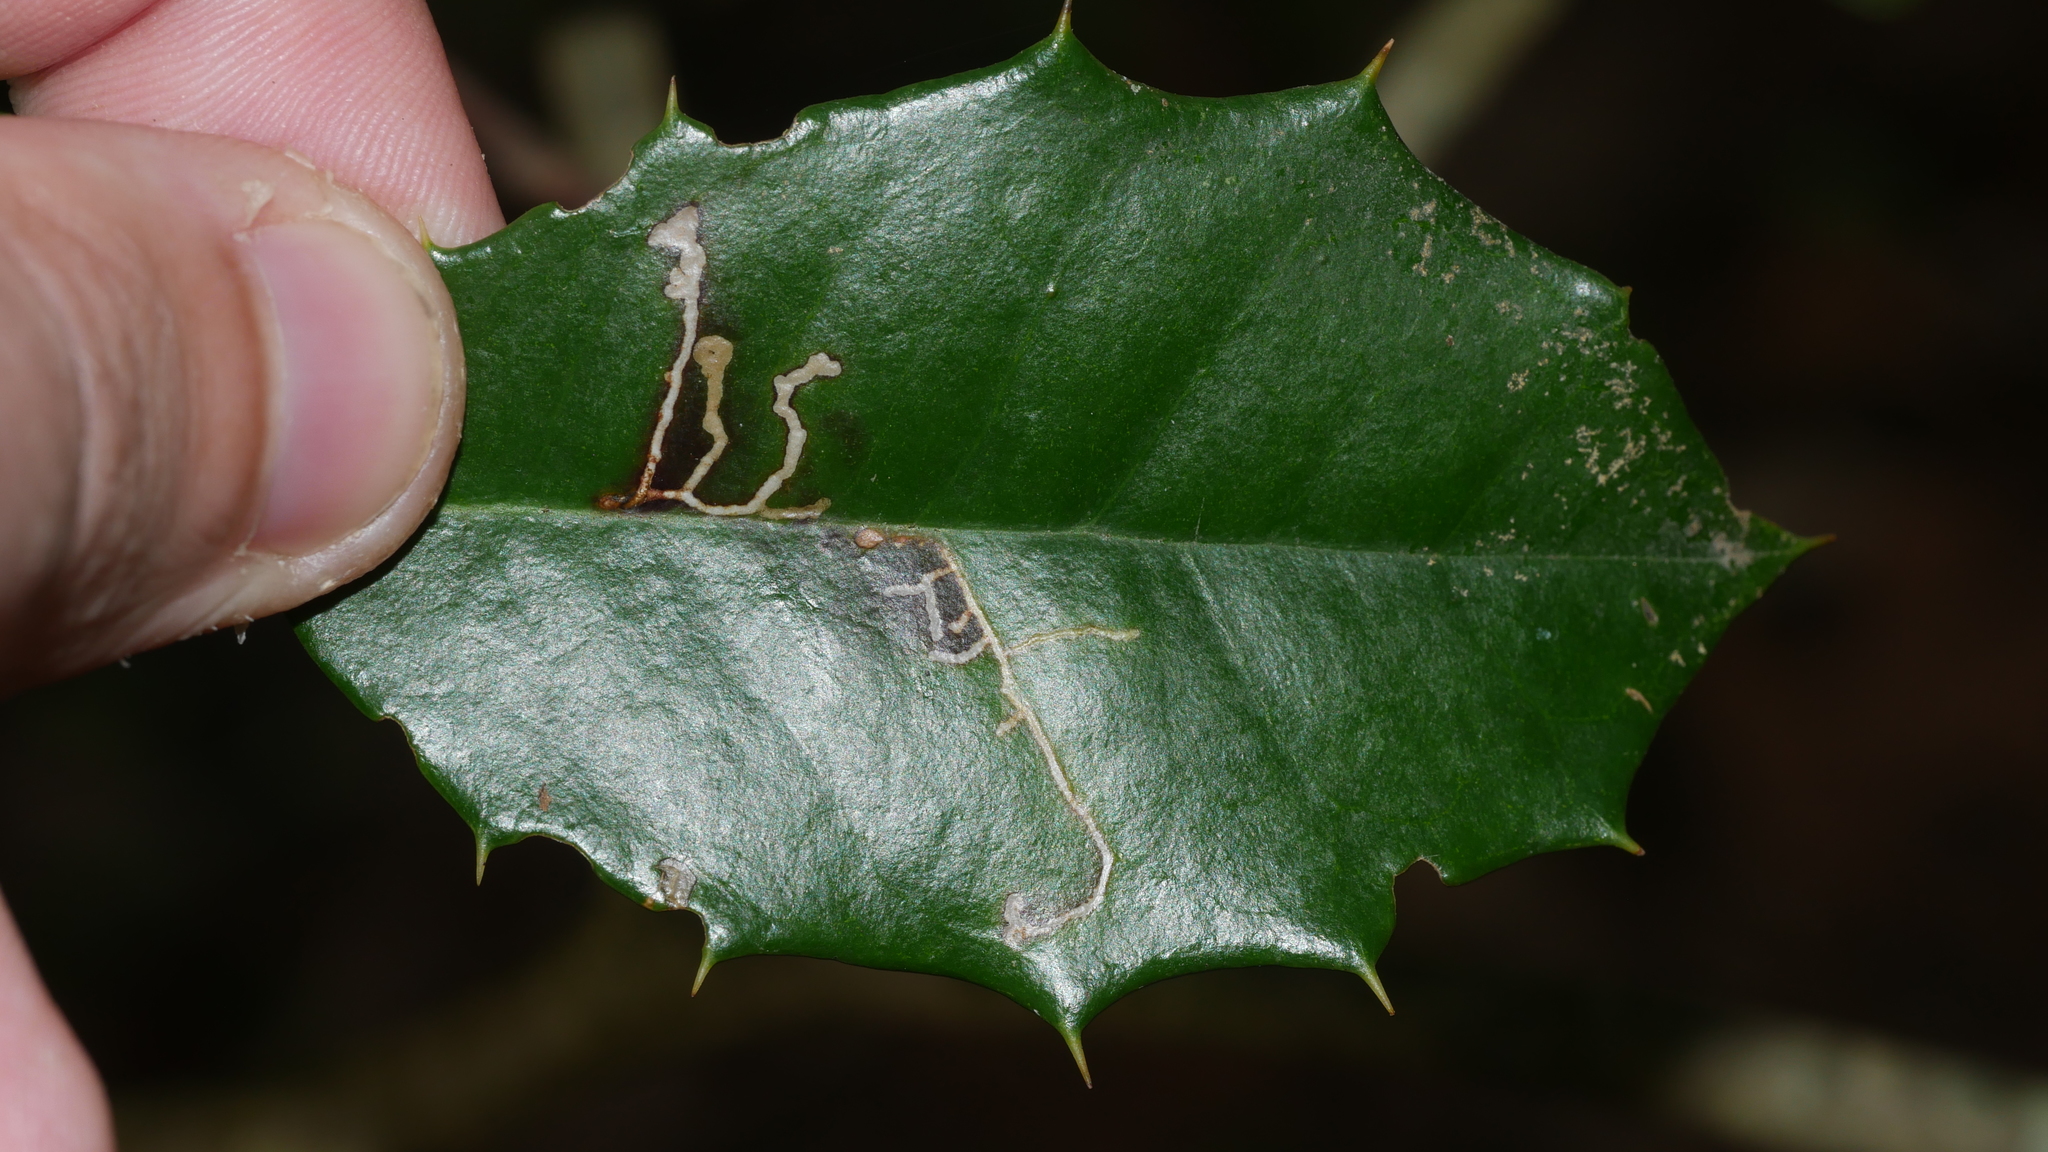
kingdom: Animalia
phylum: Arthropoda
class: Insecta
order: Lepidoptera
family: Tortricidae
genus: Rhopobota
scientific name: Rhopobota
